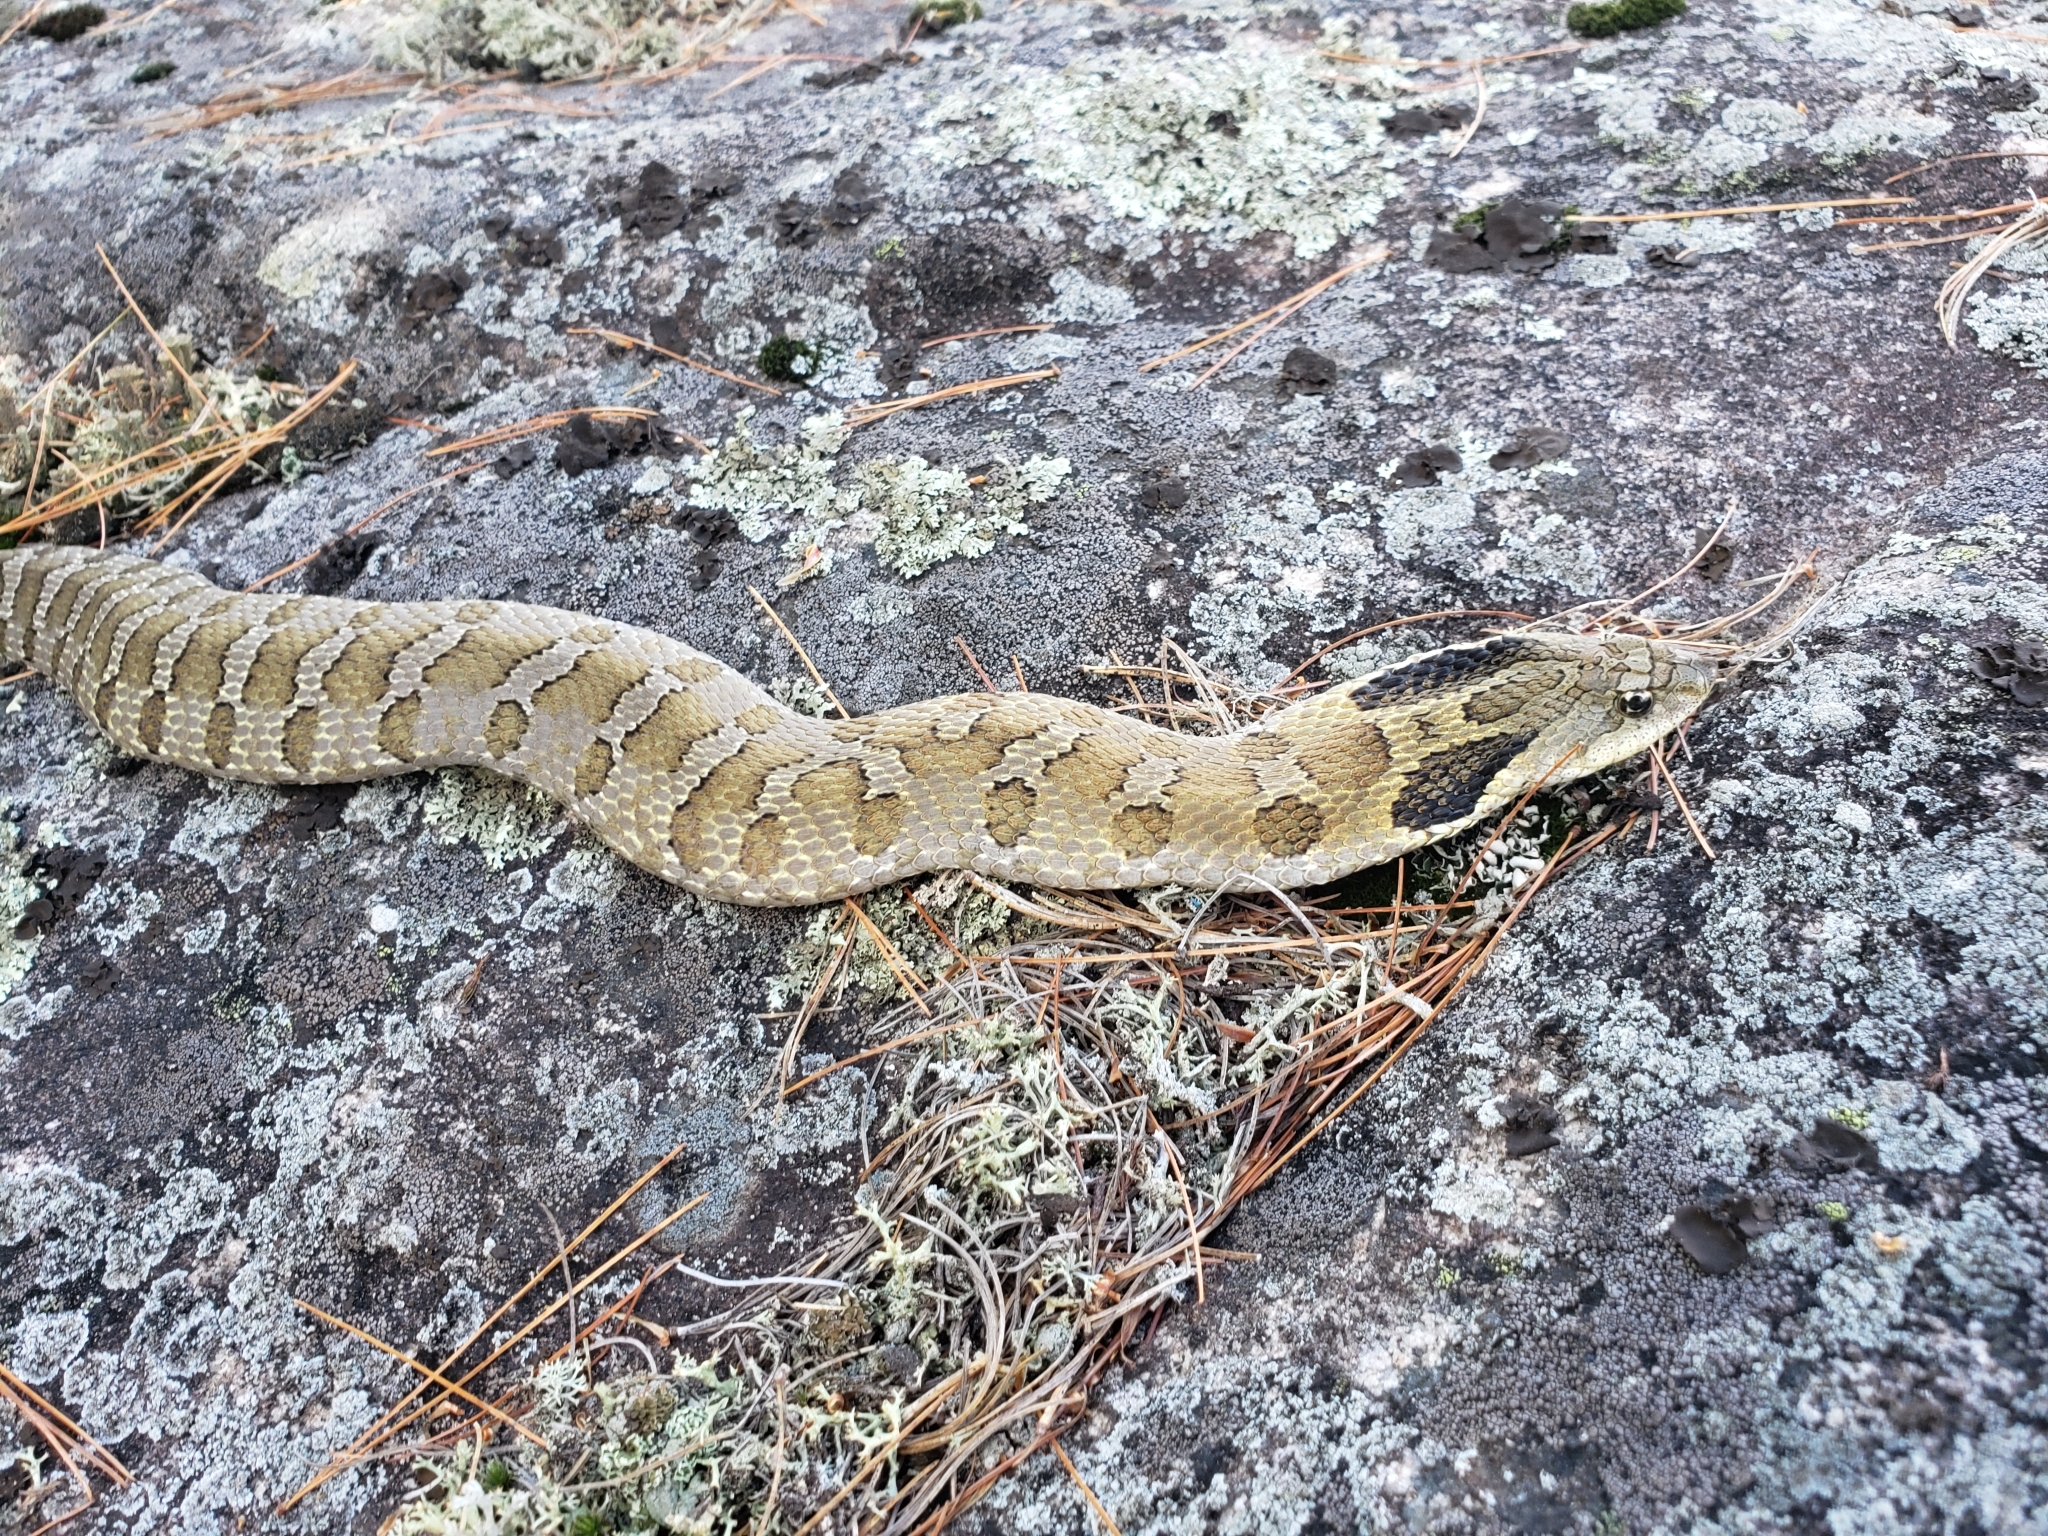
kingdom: Animalia
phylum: Chordata
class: Squamata
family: Colubridae
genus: Heterodon
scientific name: Heterodon platirhinos
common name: Eastern hognose snake
